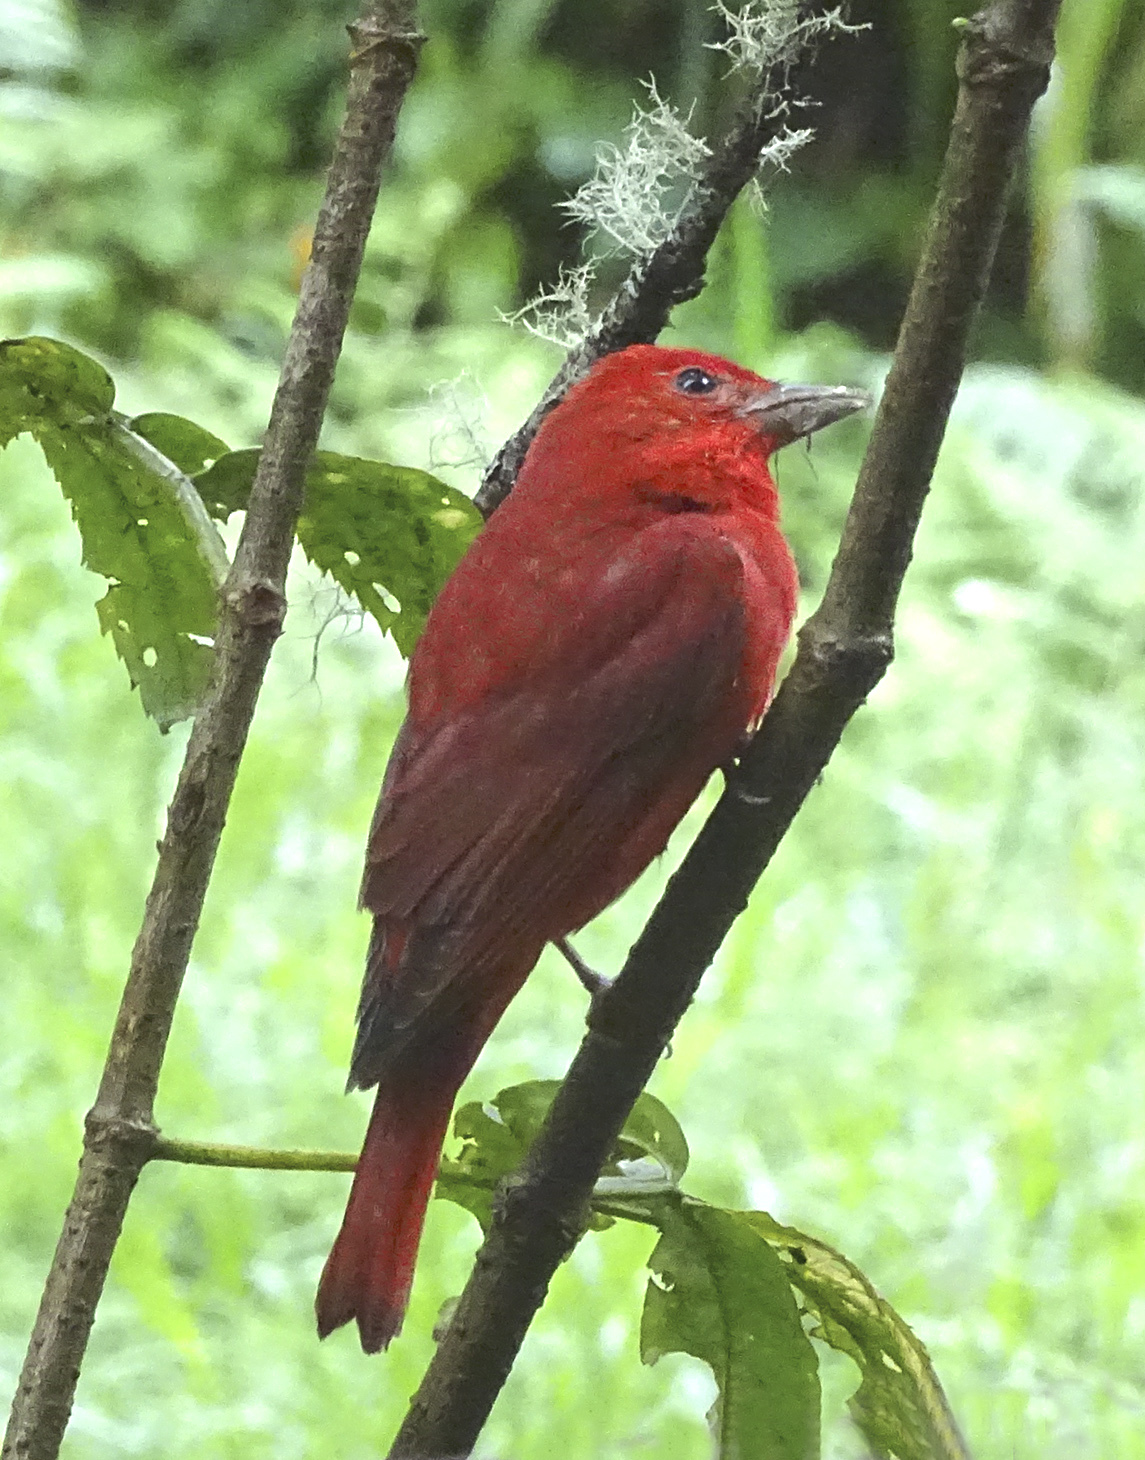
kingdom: Animalia
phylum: Chordata
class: Aves
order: Passeriformes
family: Cardinalidae
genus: Piranga
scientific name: Piranga rubra
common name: Summer tanager
